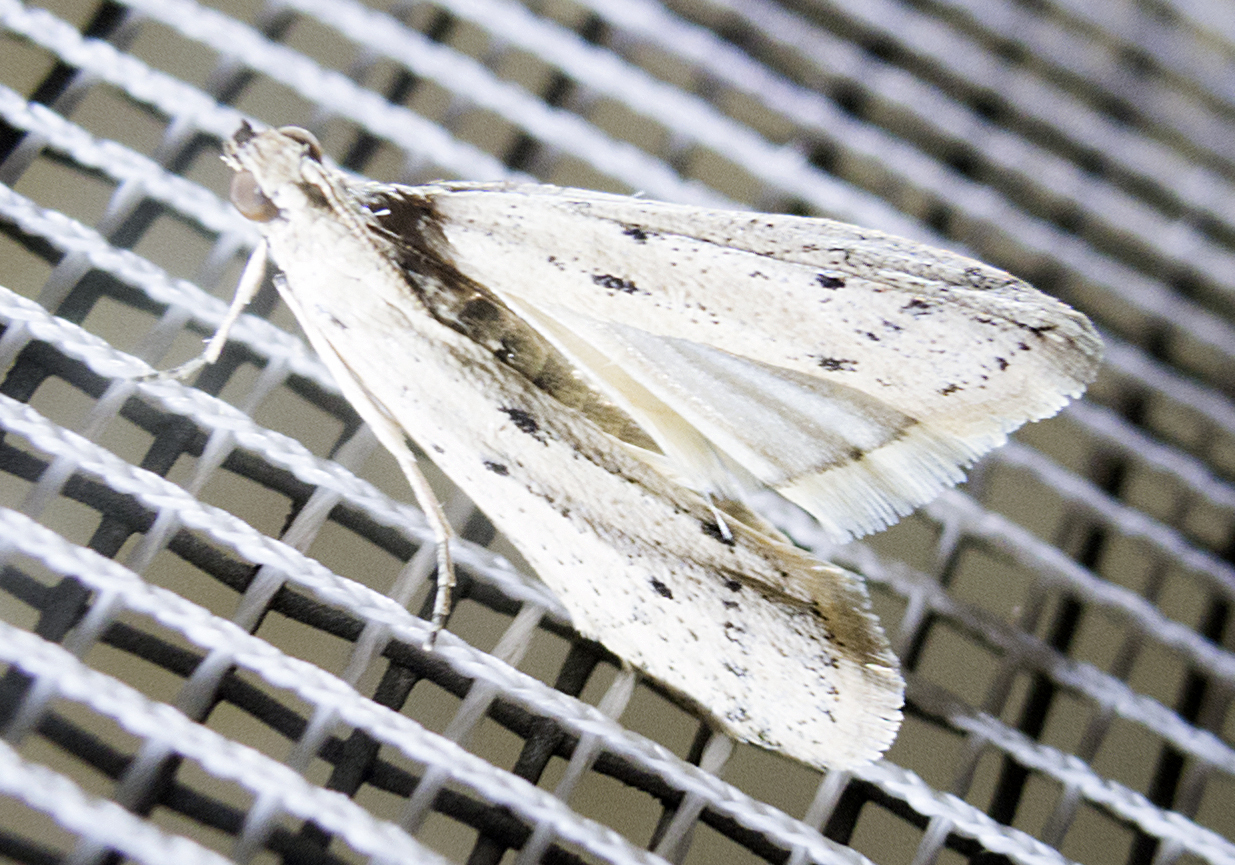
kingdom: Animalia
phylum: Arthropoda
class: Insecta
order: Lepidoptera
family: Pyralidae
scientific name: Pyralidae
